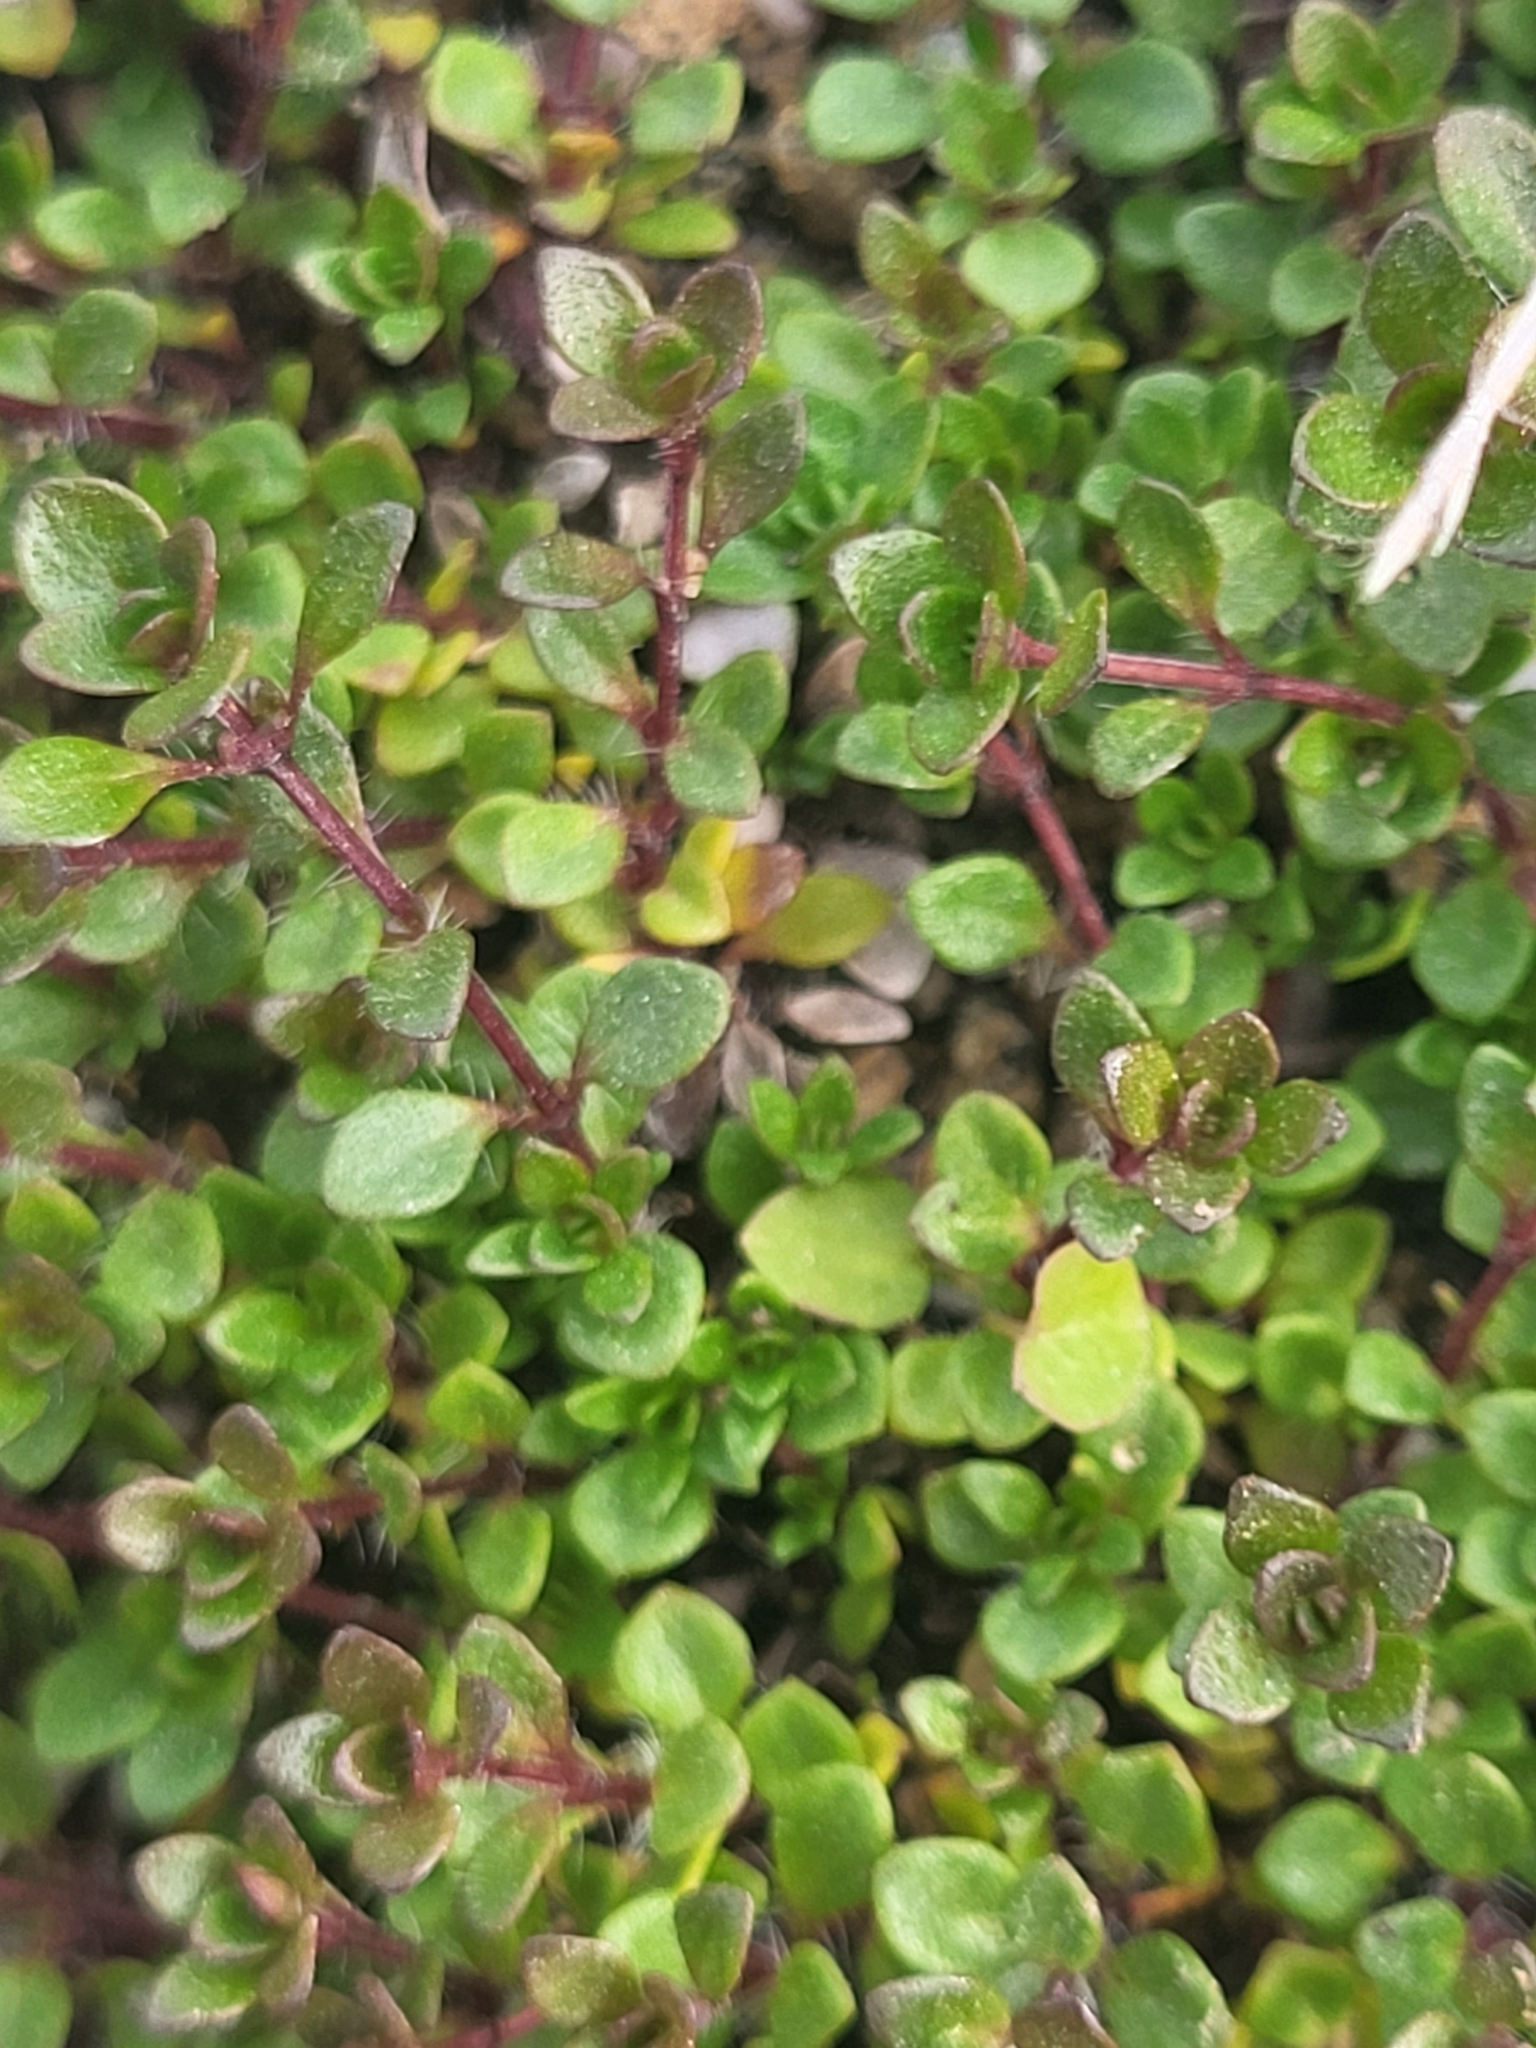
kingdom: Plantae
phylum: Tracheophyta
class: Magnoliopsida
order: Lamiales
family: Lamiaceae
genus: Thymus
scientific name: Thymus praecox
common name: Wild thyme
